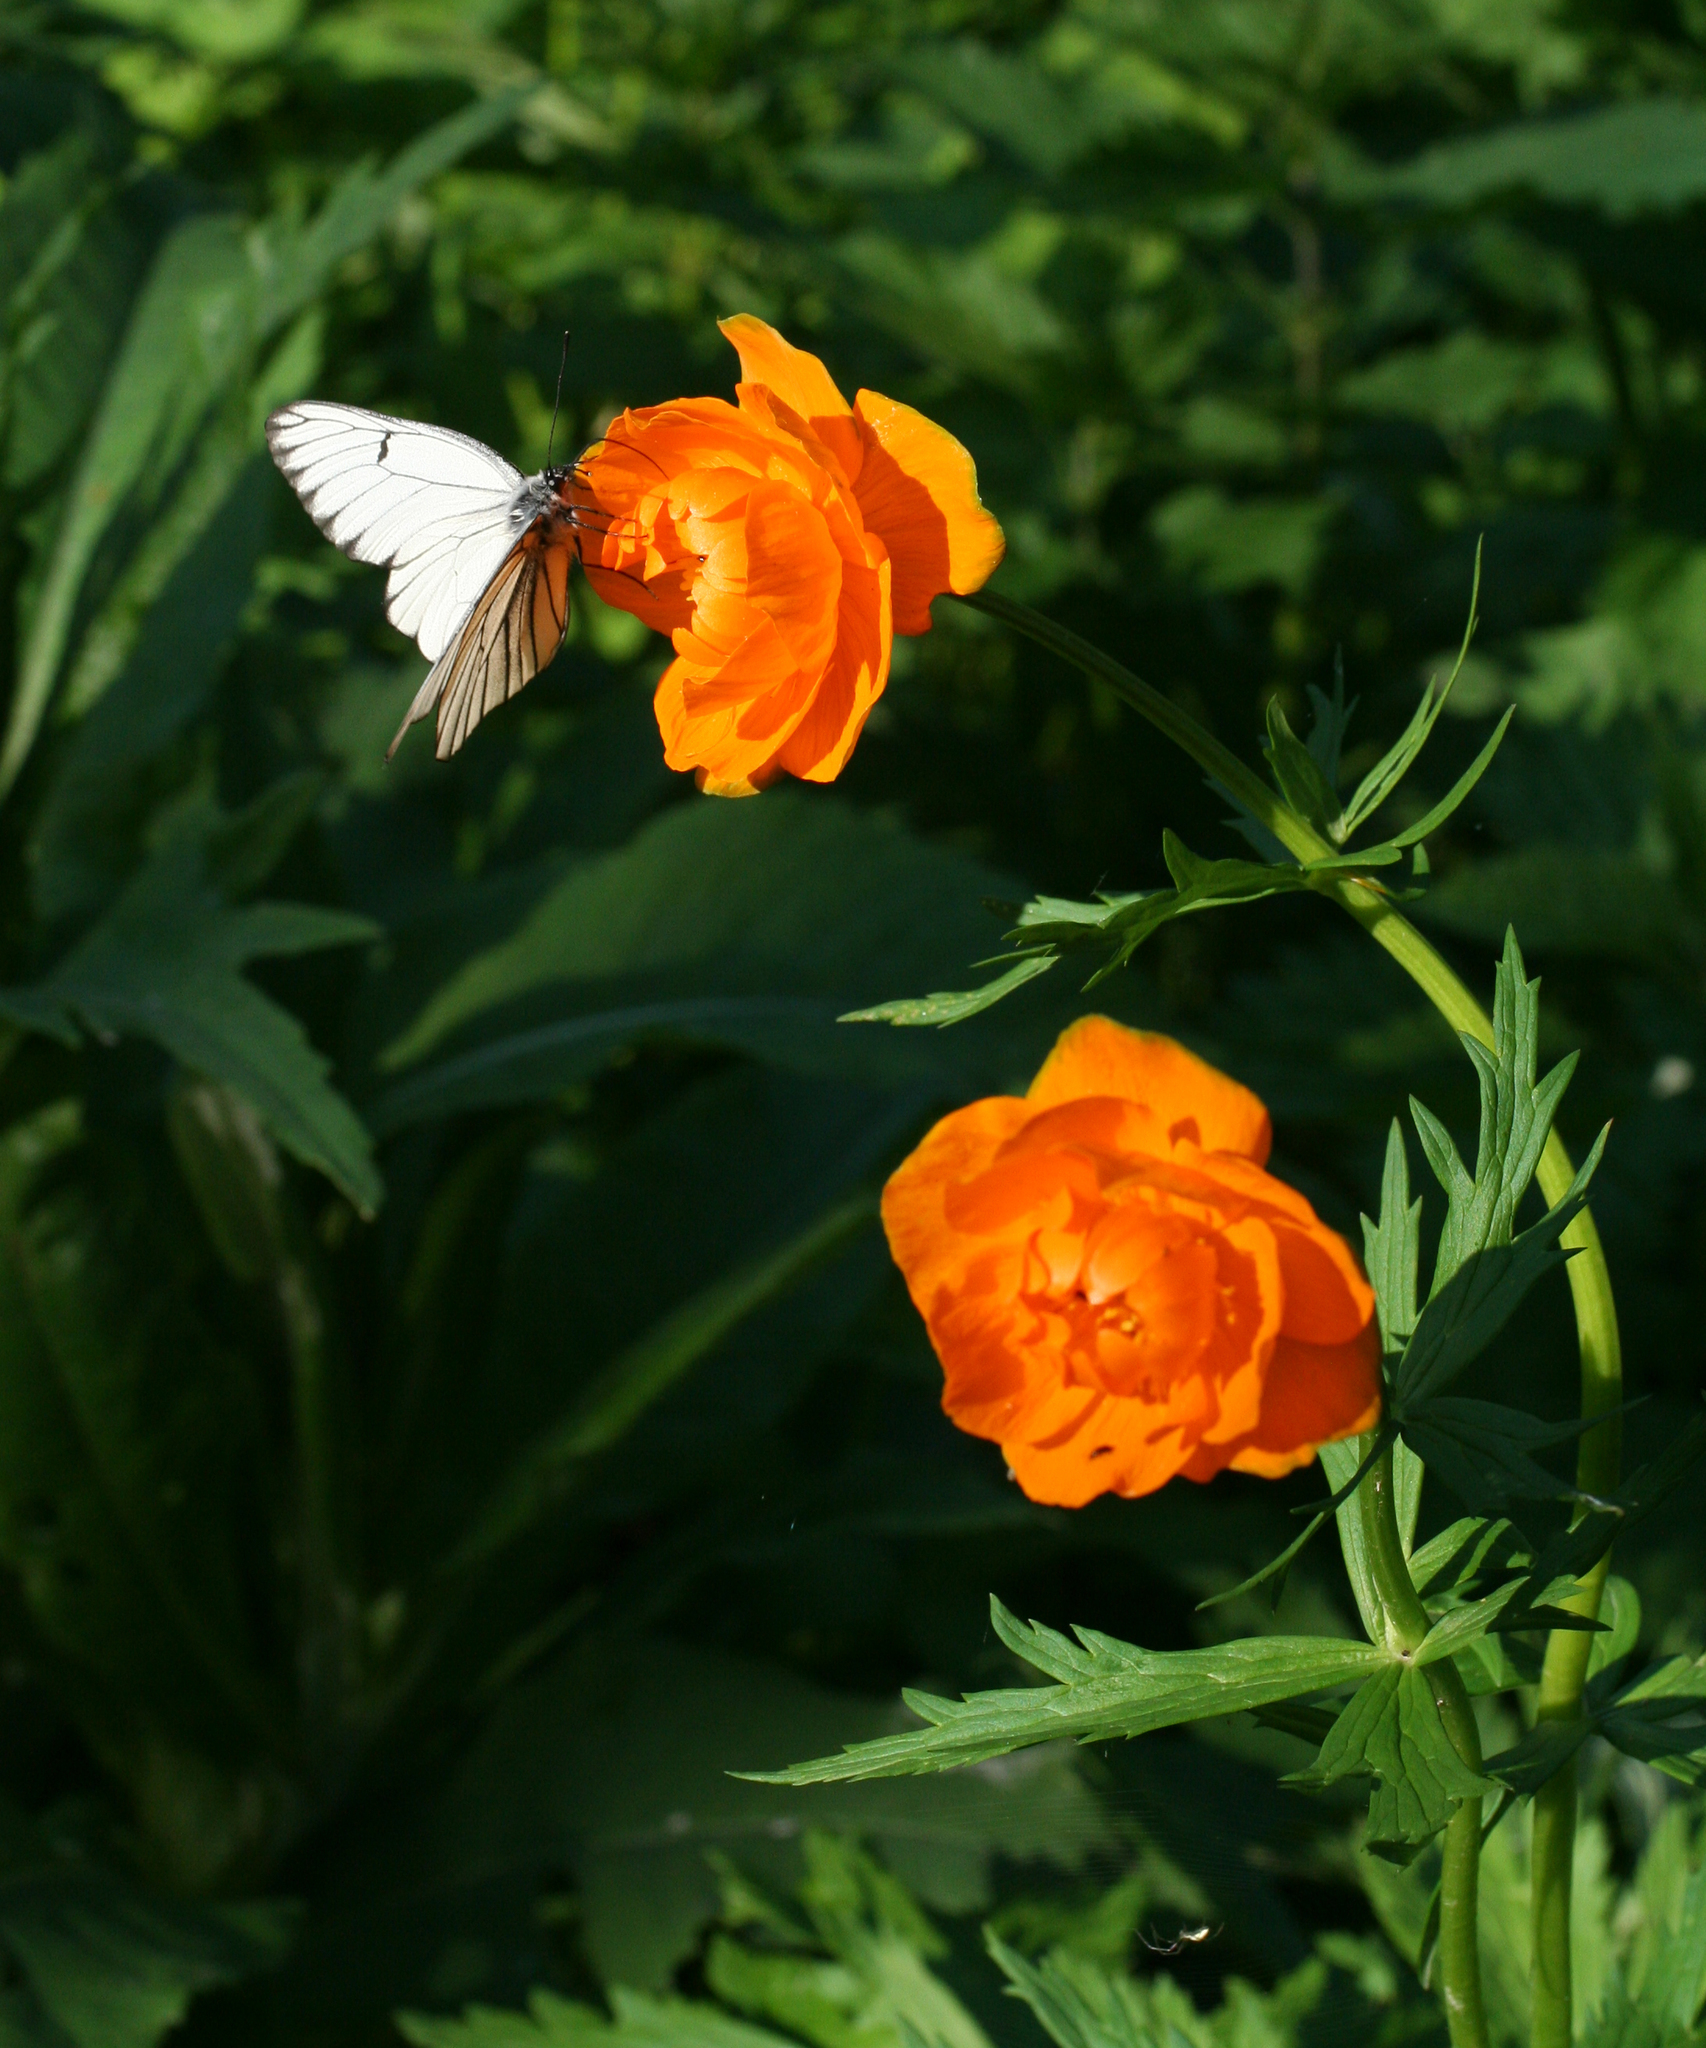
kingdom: Plantae
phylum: Tracheophyta
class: Magnoliopsida
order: Ranunculales
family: Ranunculaceae
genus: Trollius
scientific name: Trollius asiaticus
